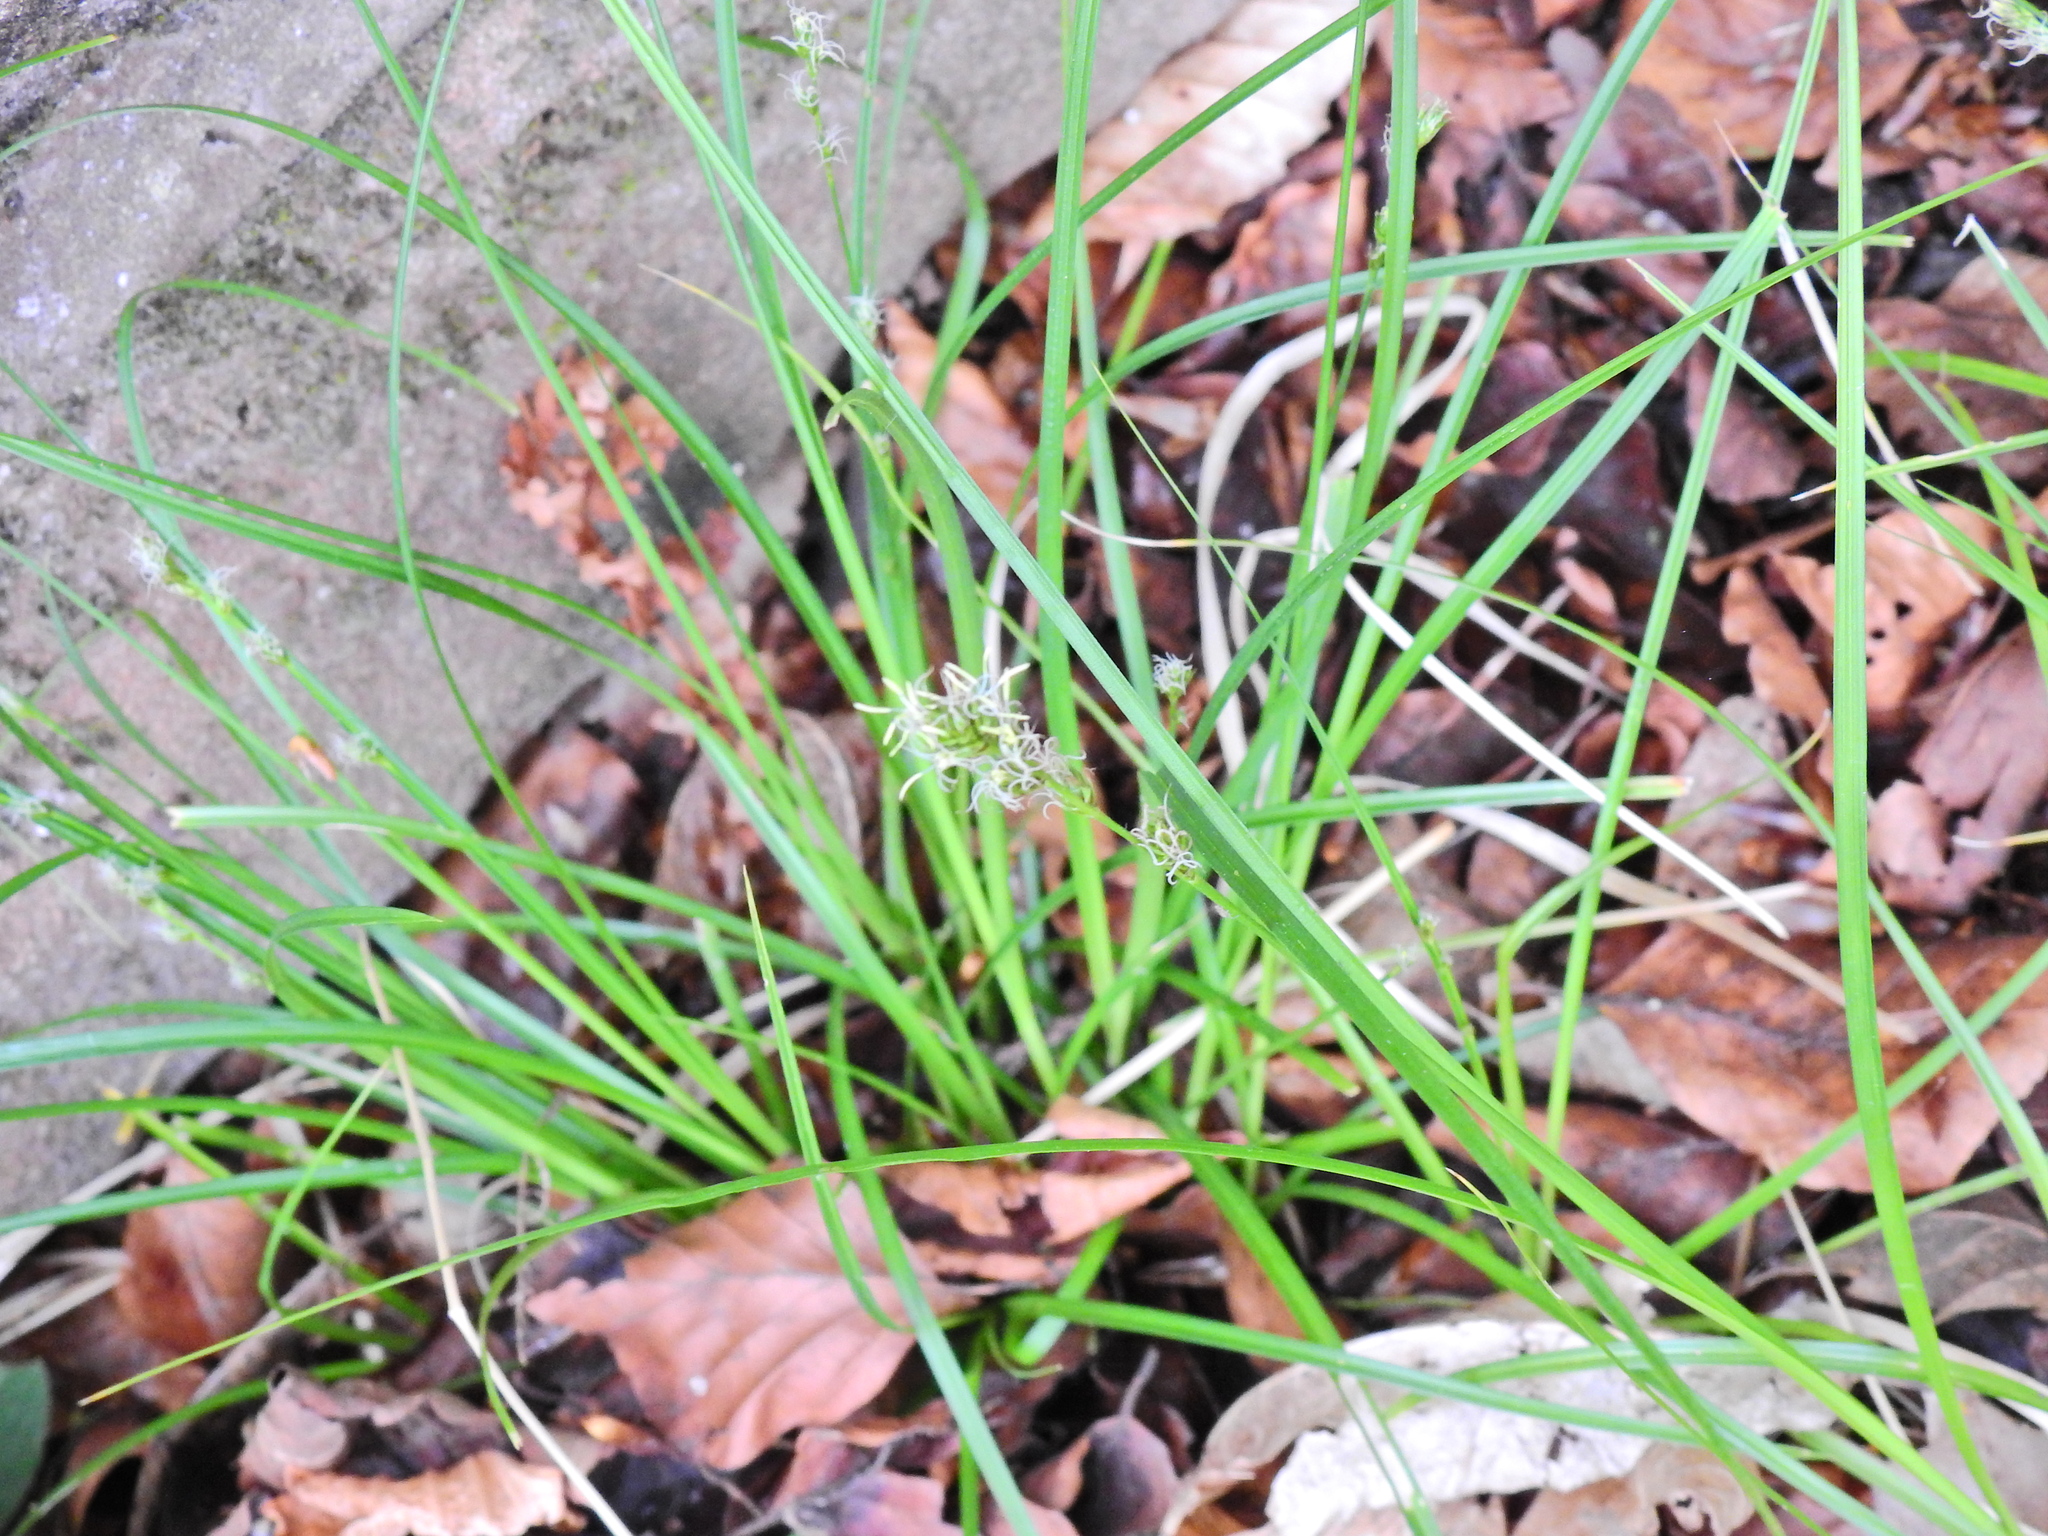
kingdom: Plantae
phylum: Tracheophyta
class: Liliopsida
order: Poales
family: Cyperaceae
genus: Carex
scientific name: Carex divulsa
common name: Grassland sedge
